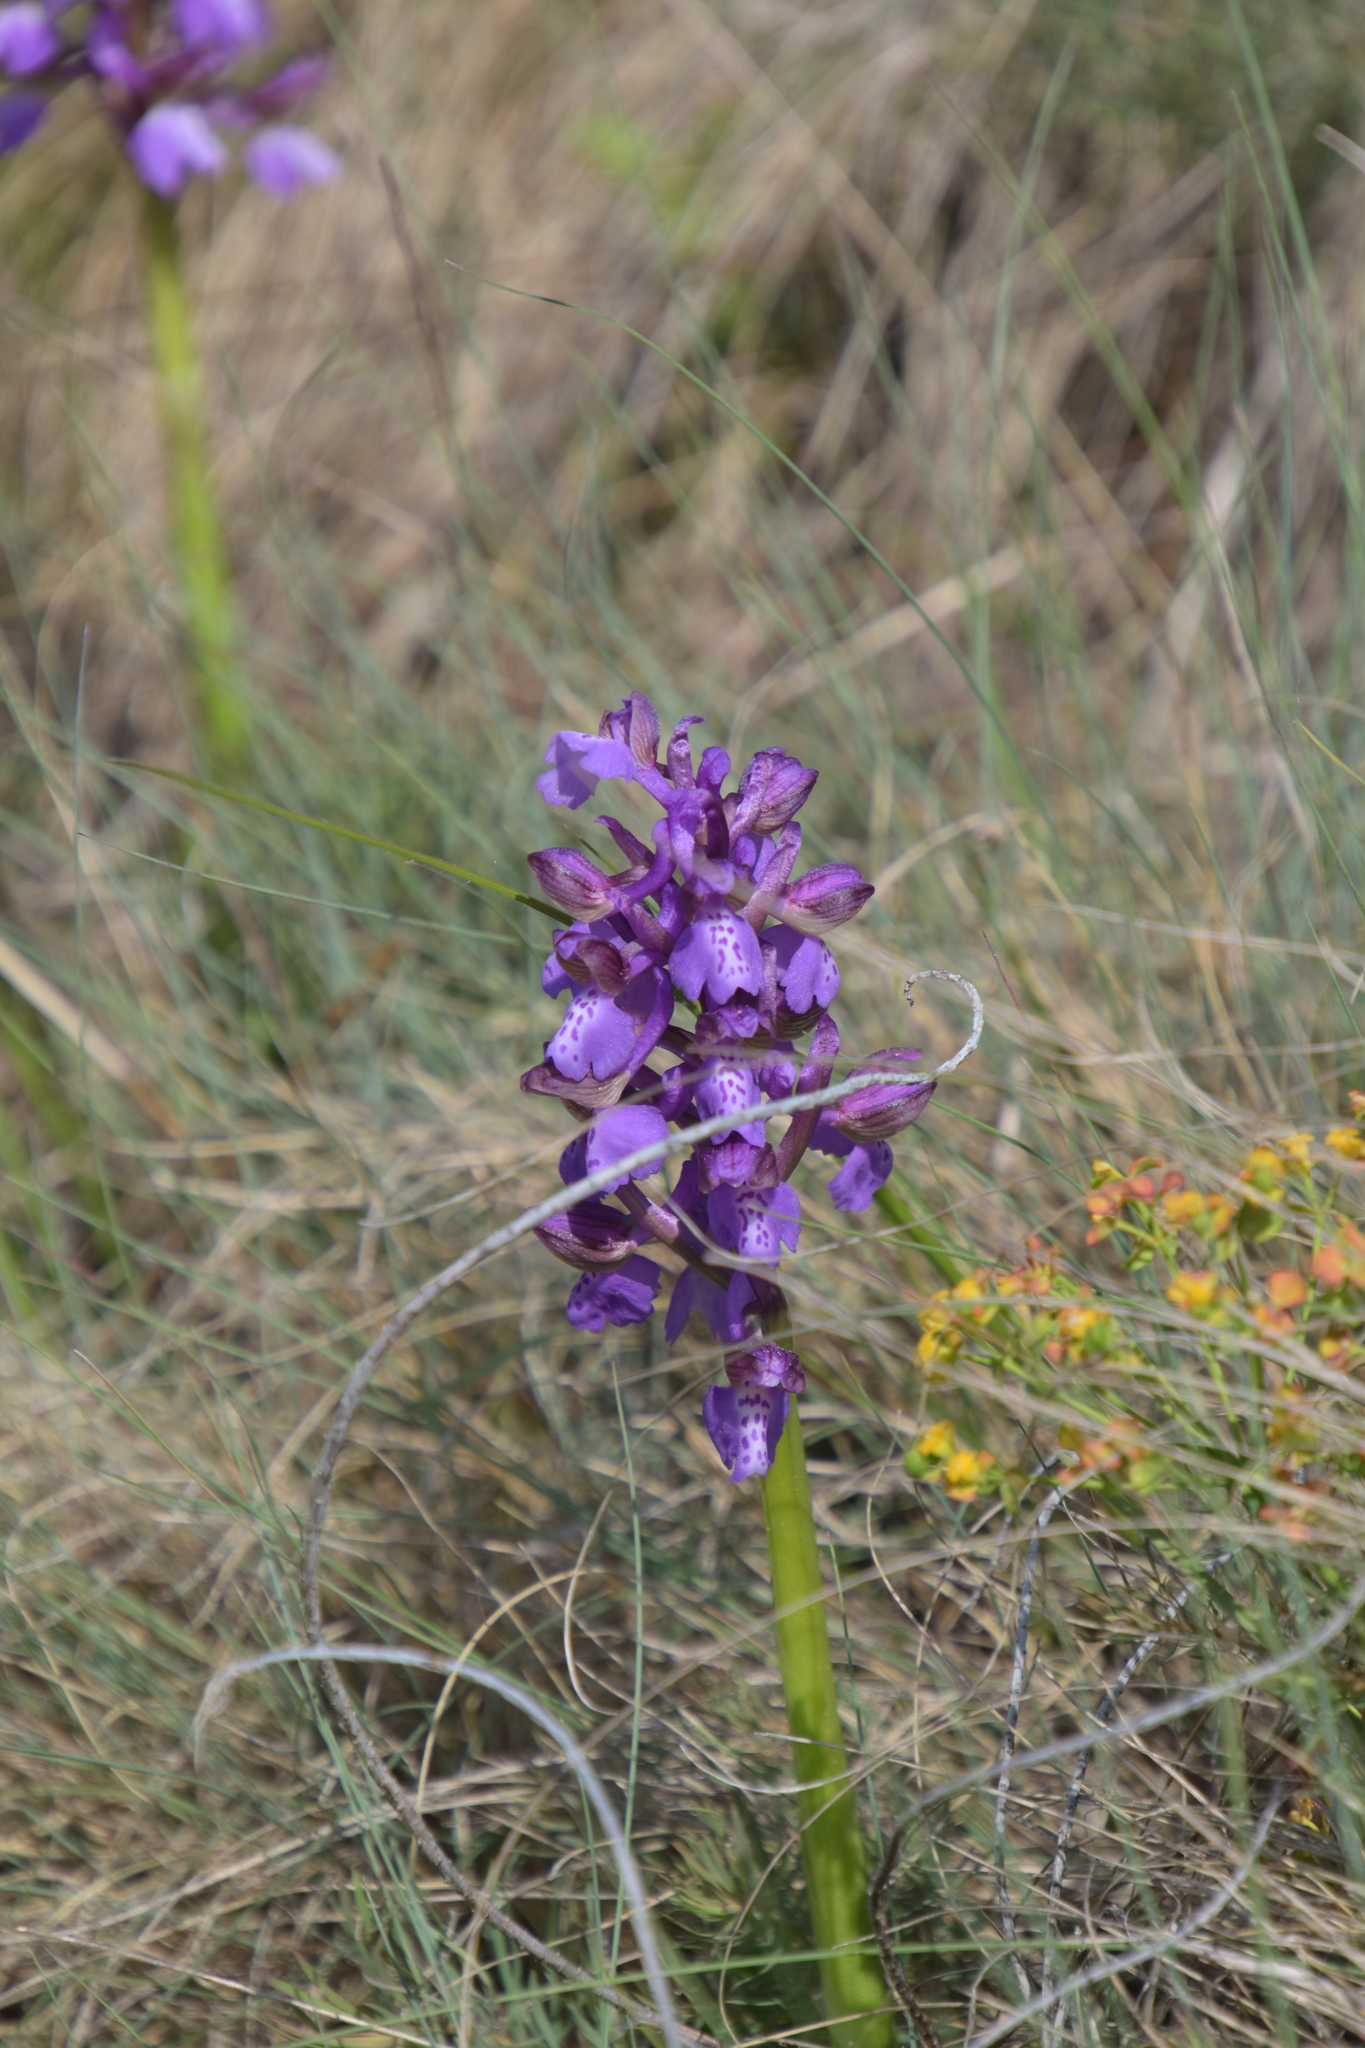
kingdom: Plantae
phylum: Tracheophyta
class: Liliopsida
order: Asparagales
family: Orchidaceae
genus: Anacamptis
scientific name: Anacamptis morio
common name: Green-winged orchid
